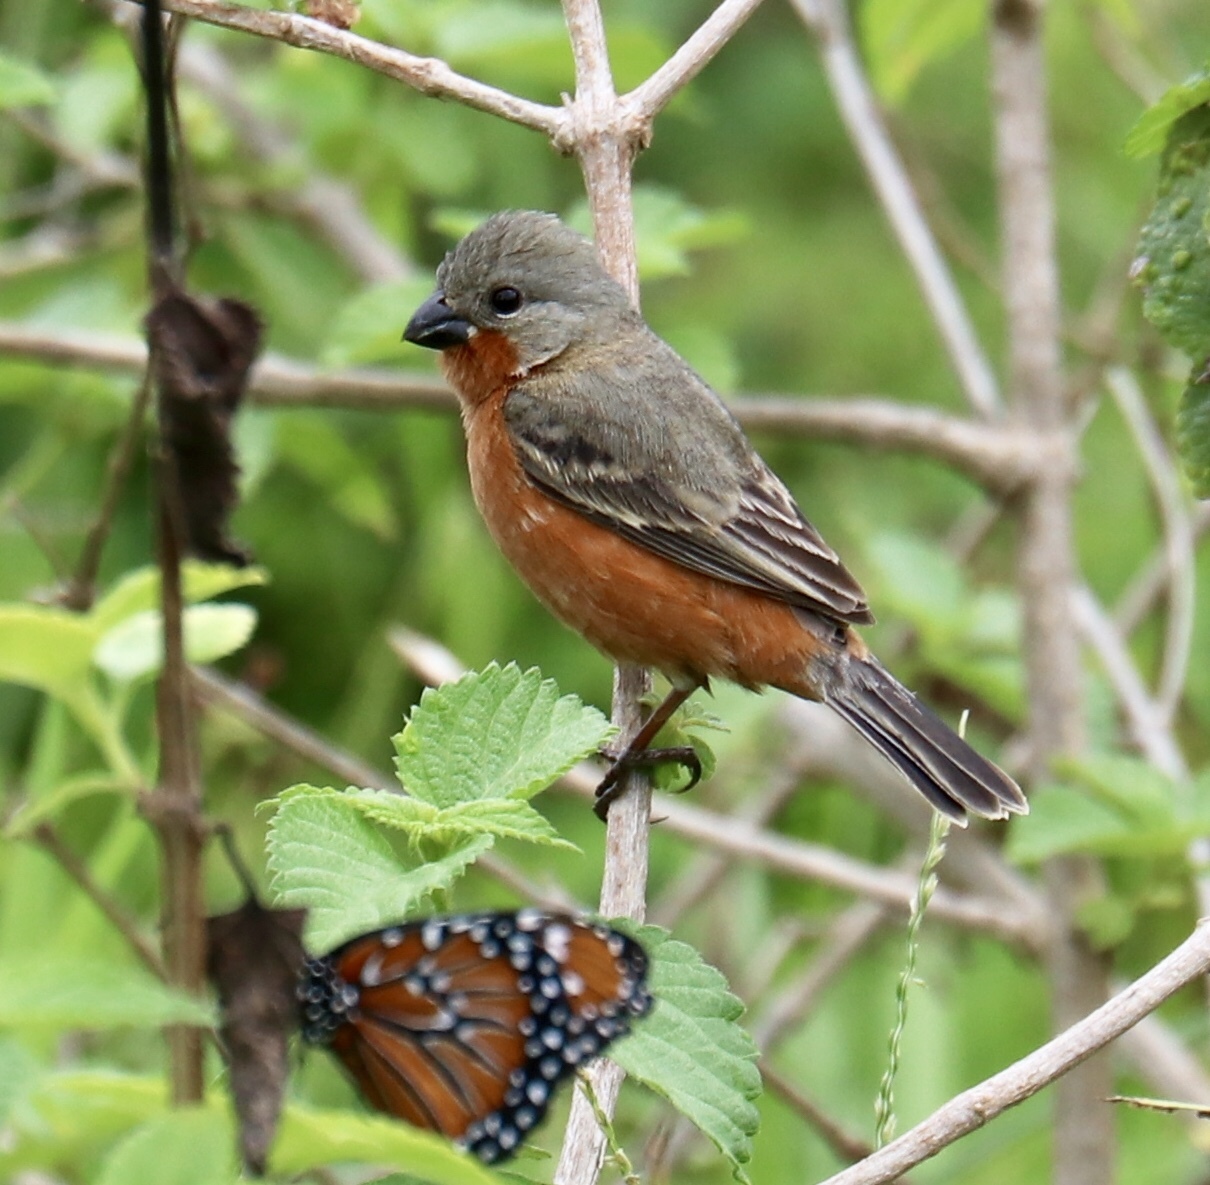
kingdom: Animalia
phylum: Chordata
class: Aves
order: Passeriformes
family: Thraupidae
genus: Sporophila
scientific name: Sporophila minuta
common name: Ruddy-breasted seedeater
